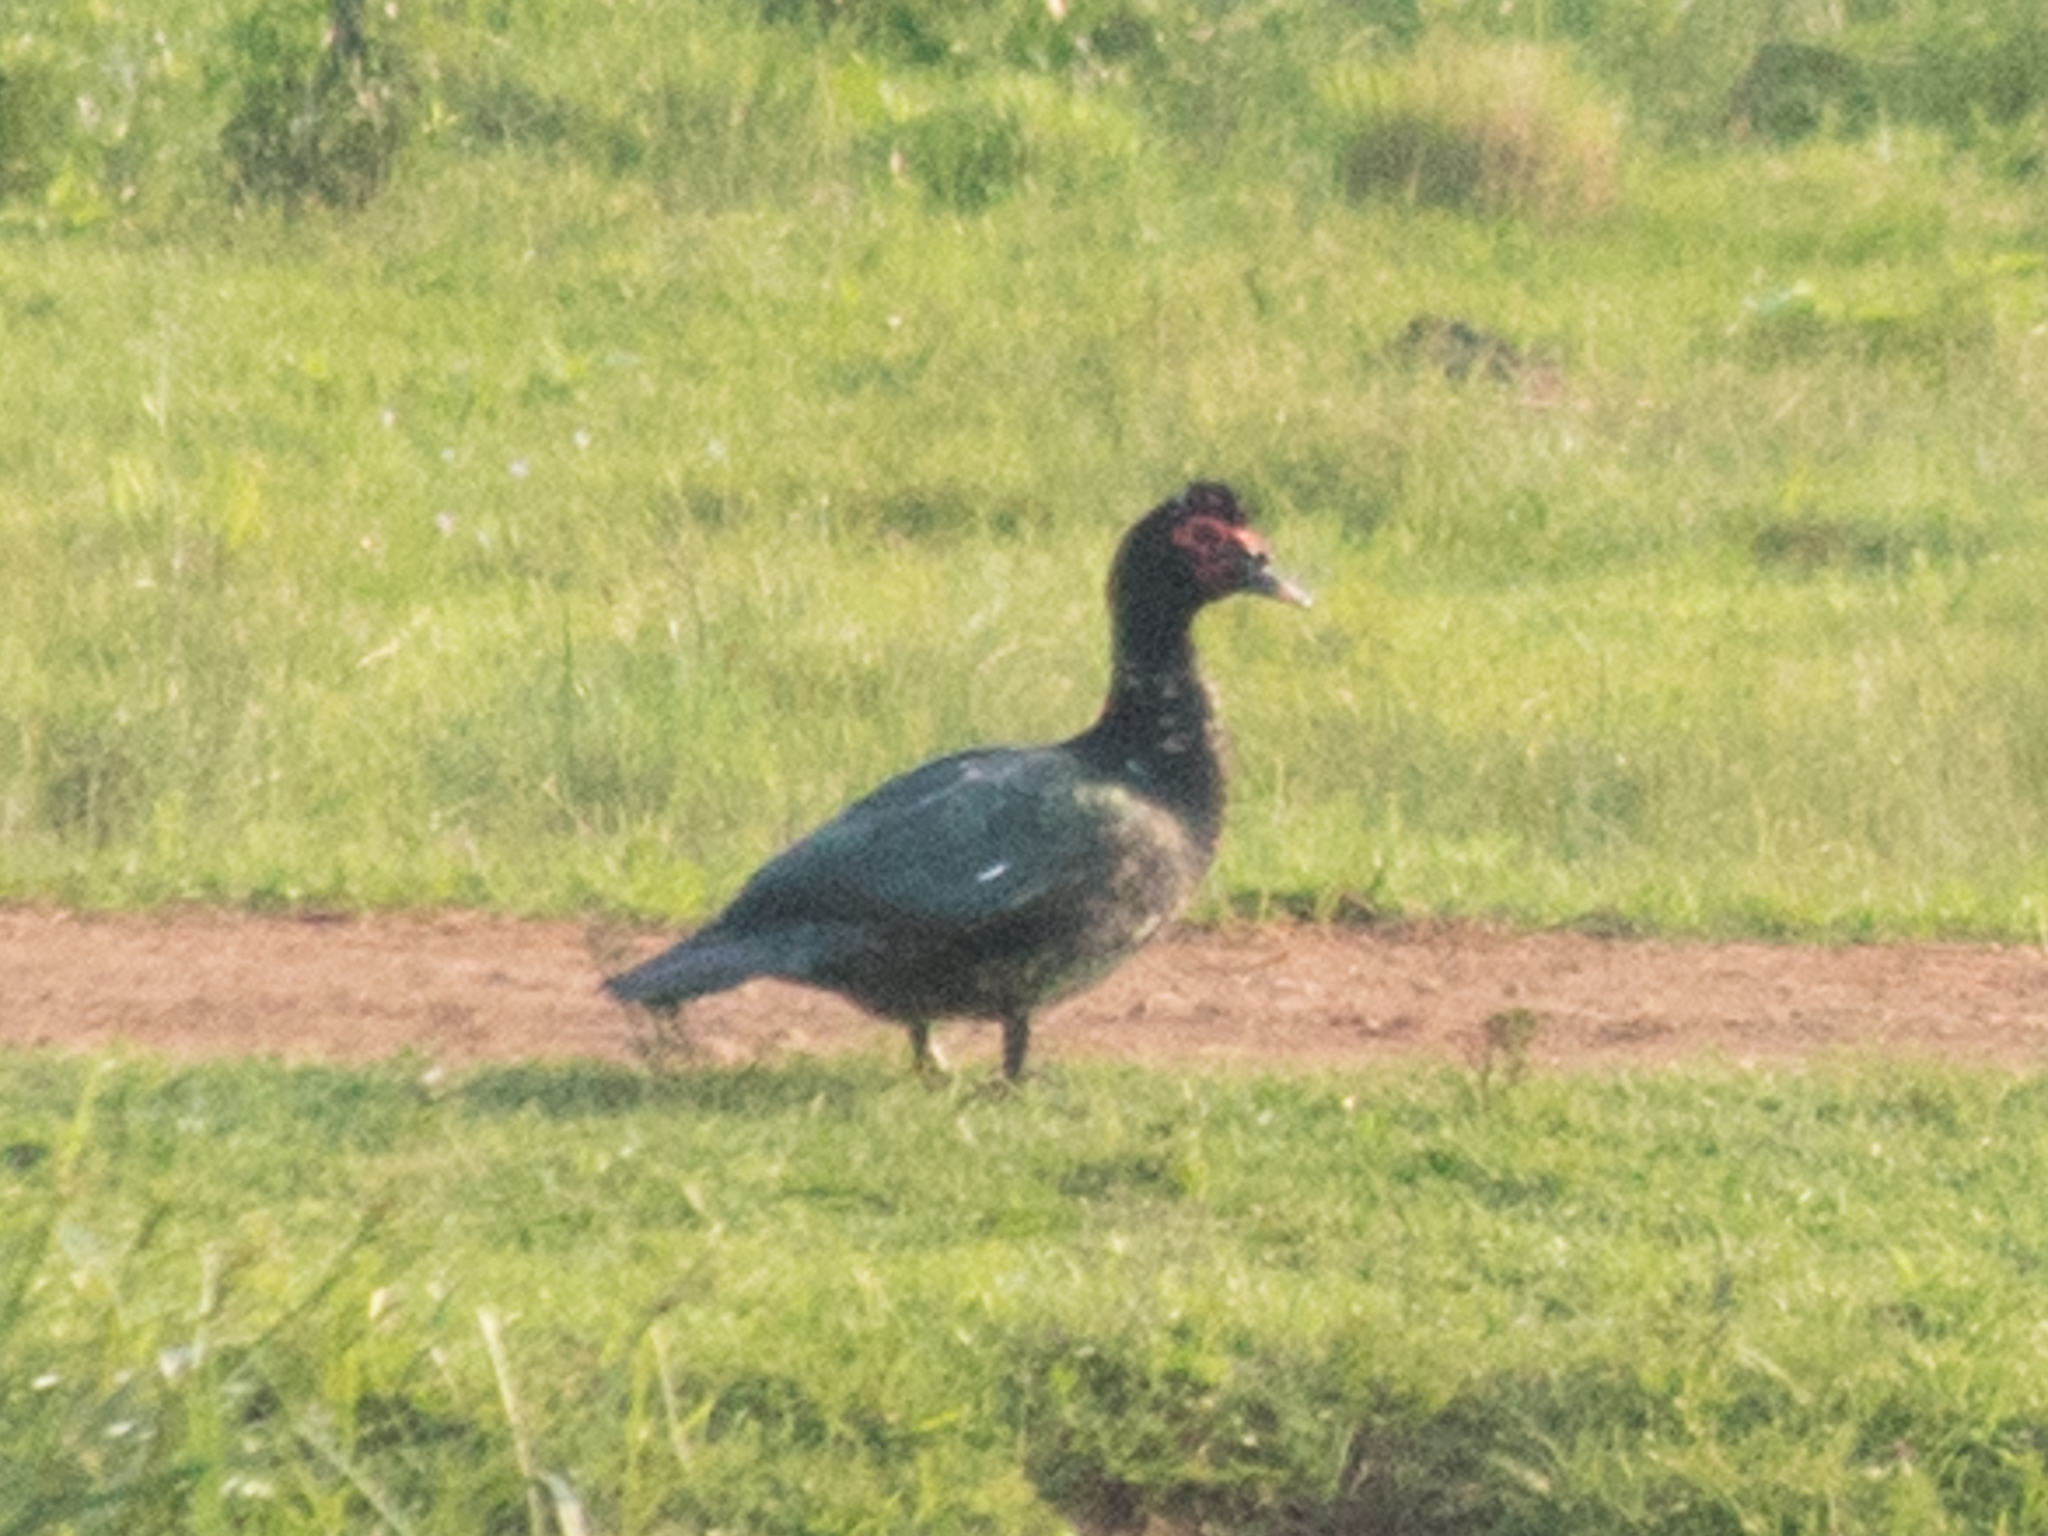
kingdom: Animalia
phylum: Chordata
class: Aves
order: Anseriformes
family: Anatidae
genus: Cairina
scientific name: Cairina moschata
